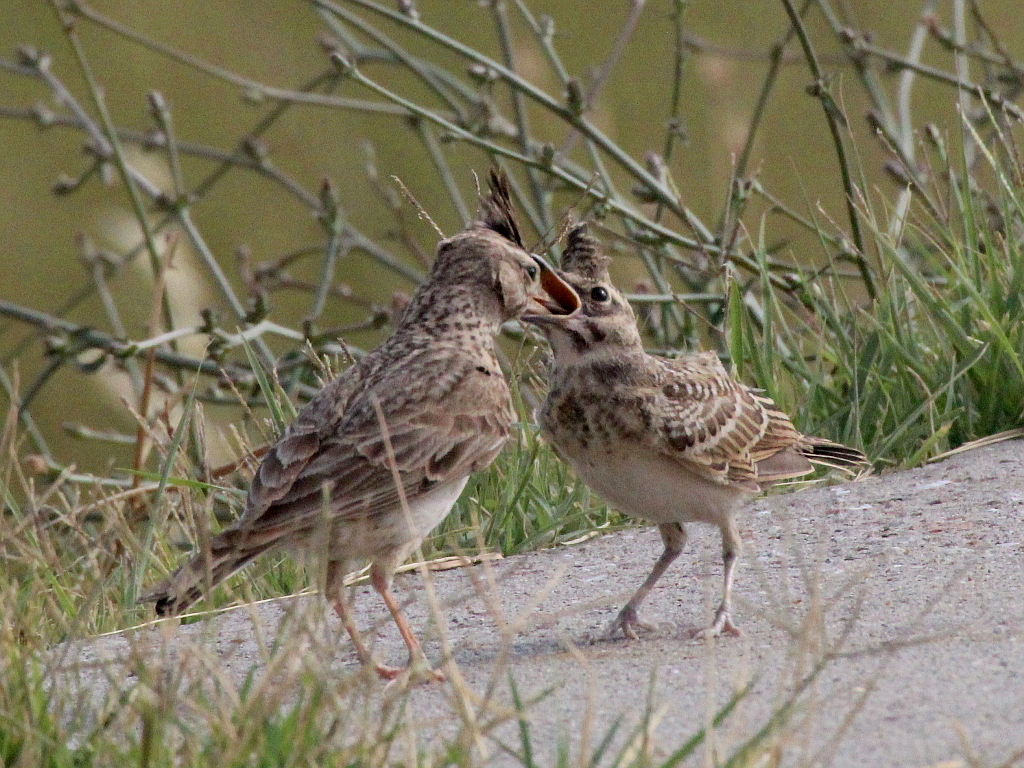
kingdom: Animalia
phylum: Chordata
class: Aves
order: Passeriformes
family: Alaudidae
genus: Galerida
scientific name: Galerida cristata
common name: Crested lark
